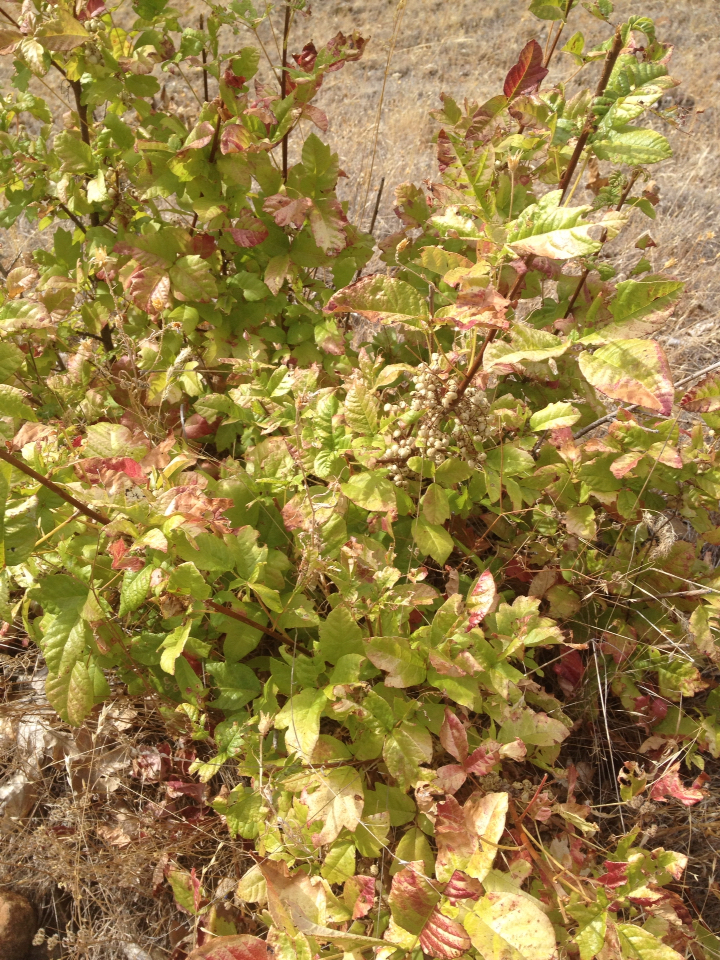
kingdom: Plantae
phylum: Tracheophyta
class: Magnoliopsida
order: Sapindales
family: Anacardiaceae
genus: Toxicodendron
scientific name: Toxicodendron diversilobum
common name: Pacific poison-oak
